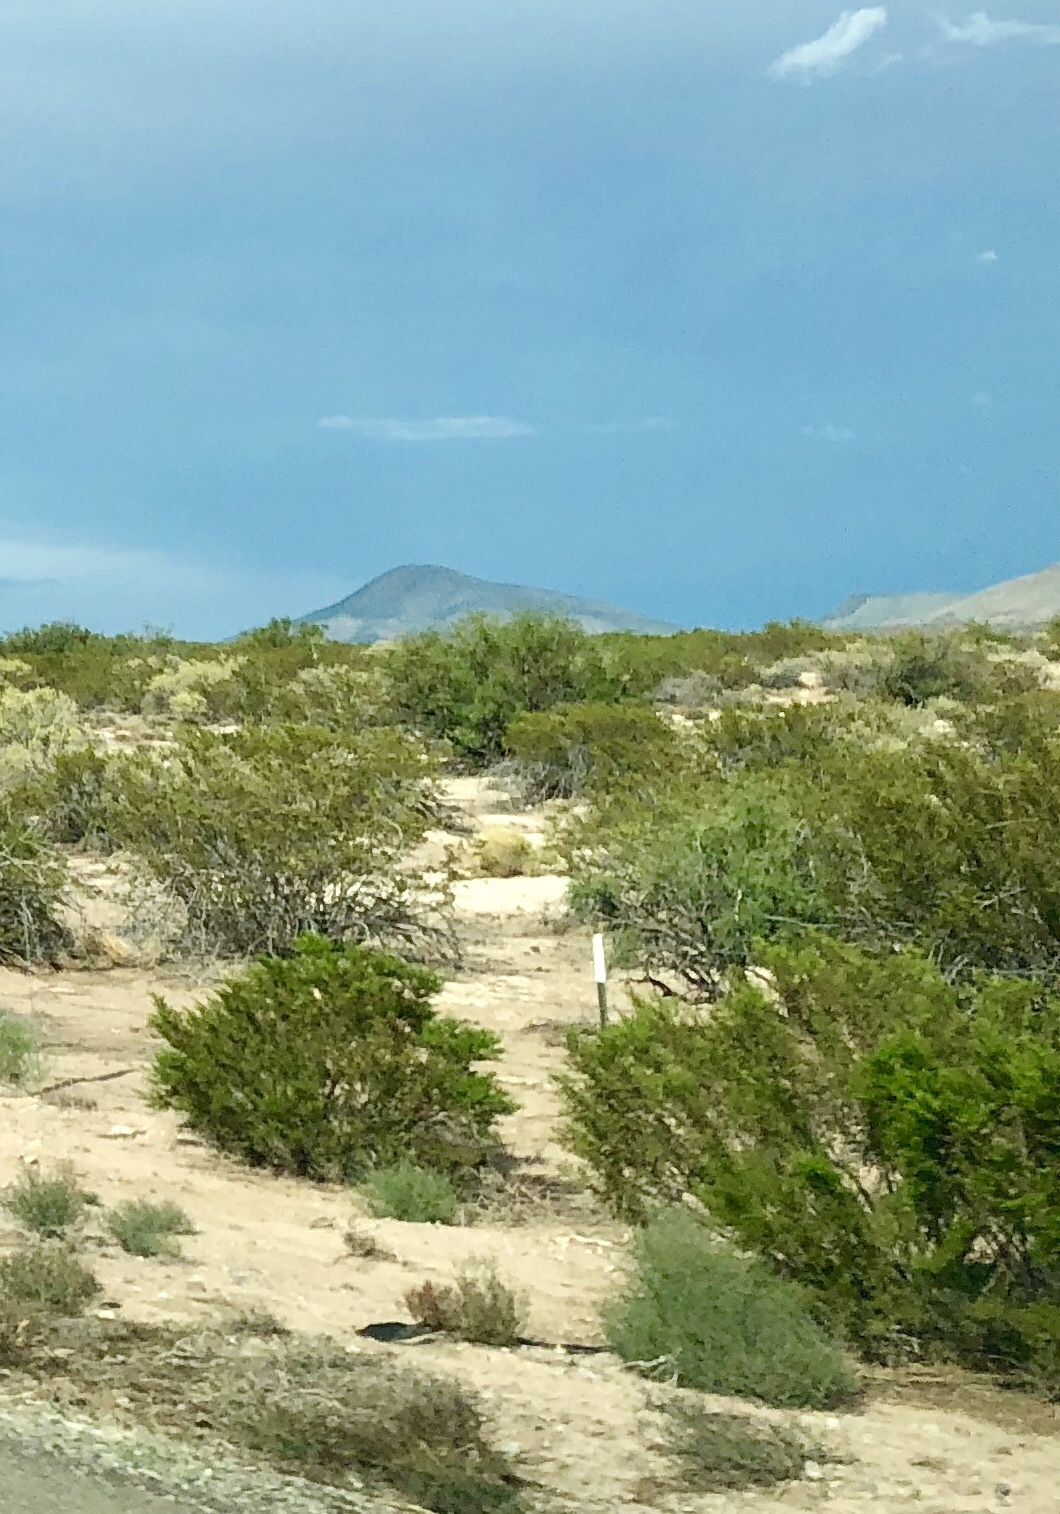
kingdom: Plantae
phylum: Tracheophyta
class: Magnoliopsida
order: Zygophyllales
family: Zygophyllaceae
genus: Larrea
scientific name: Larrea tridentata
